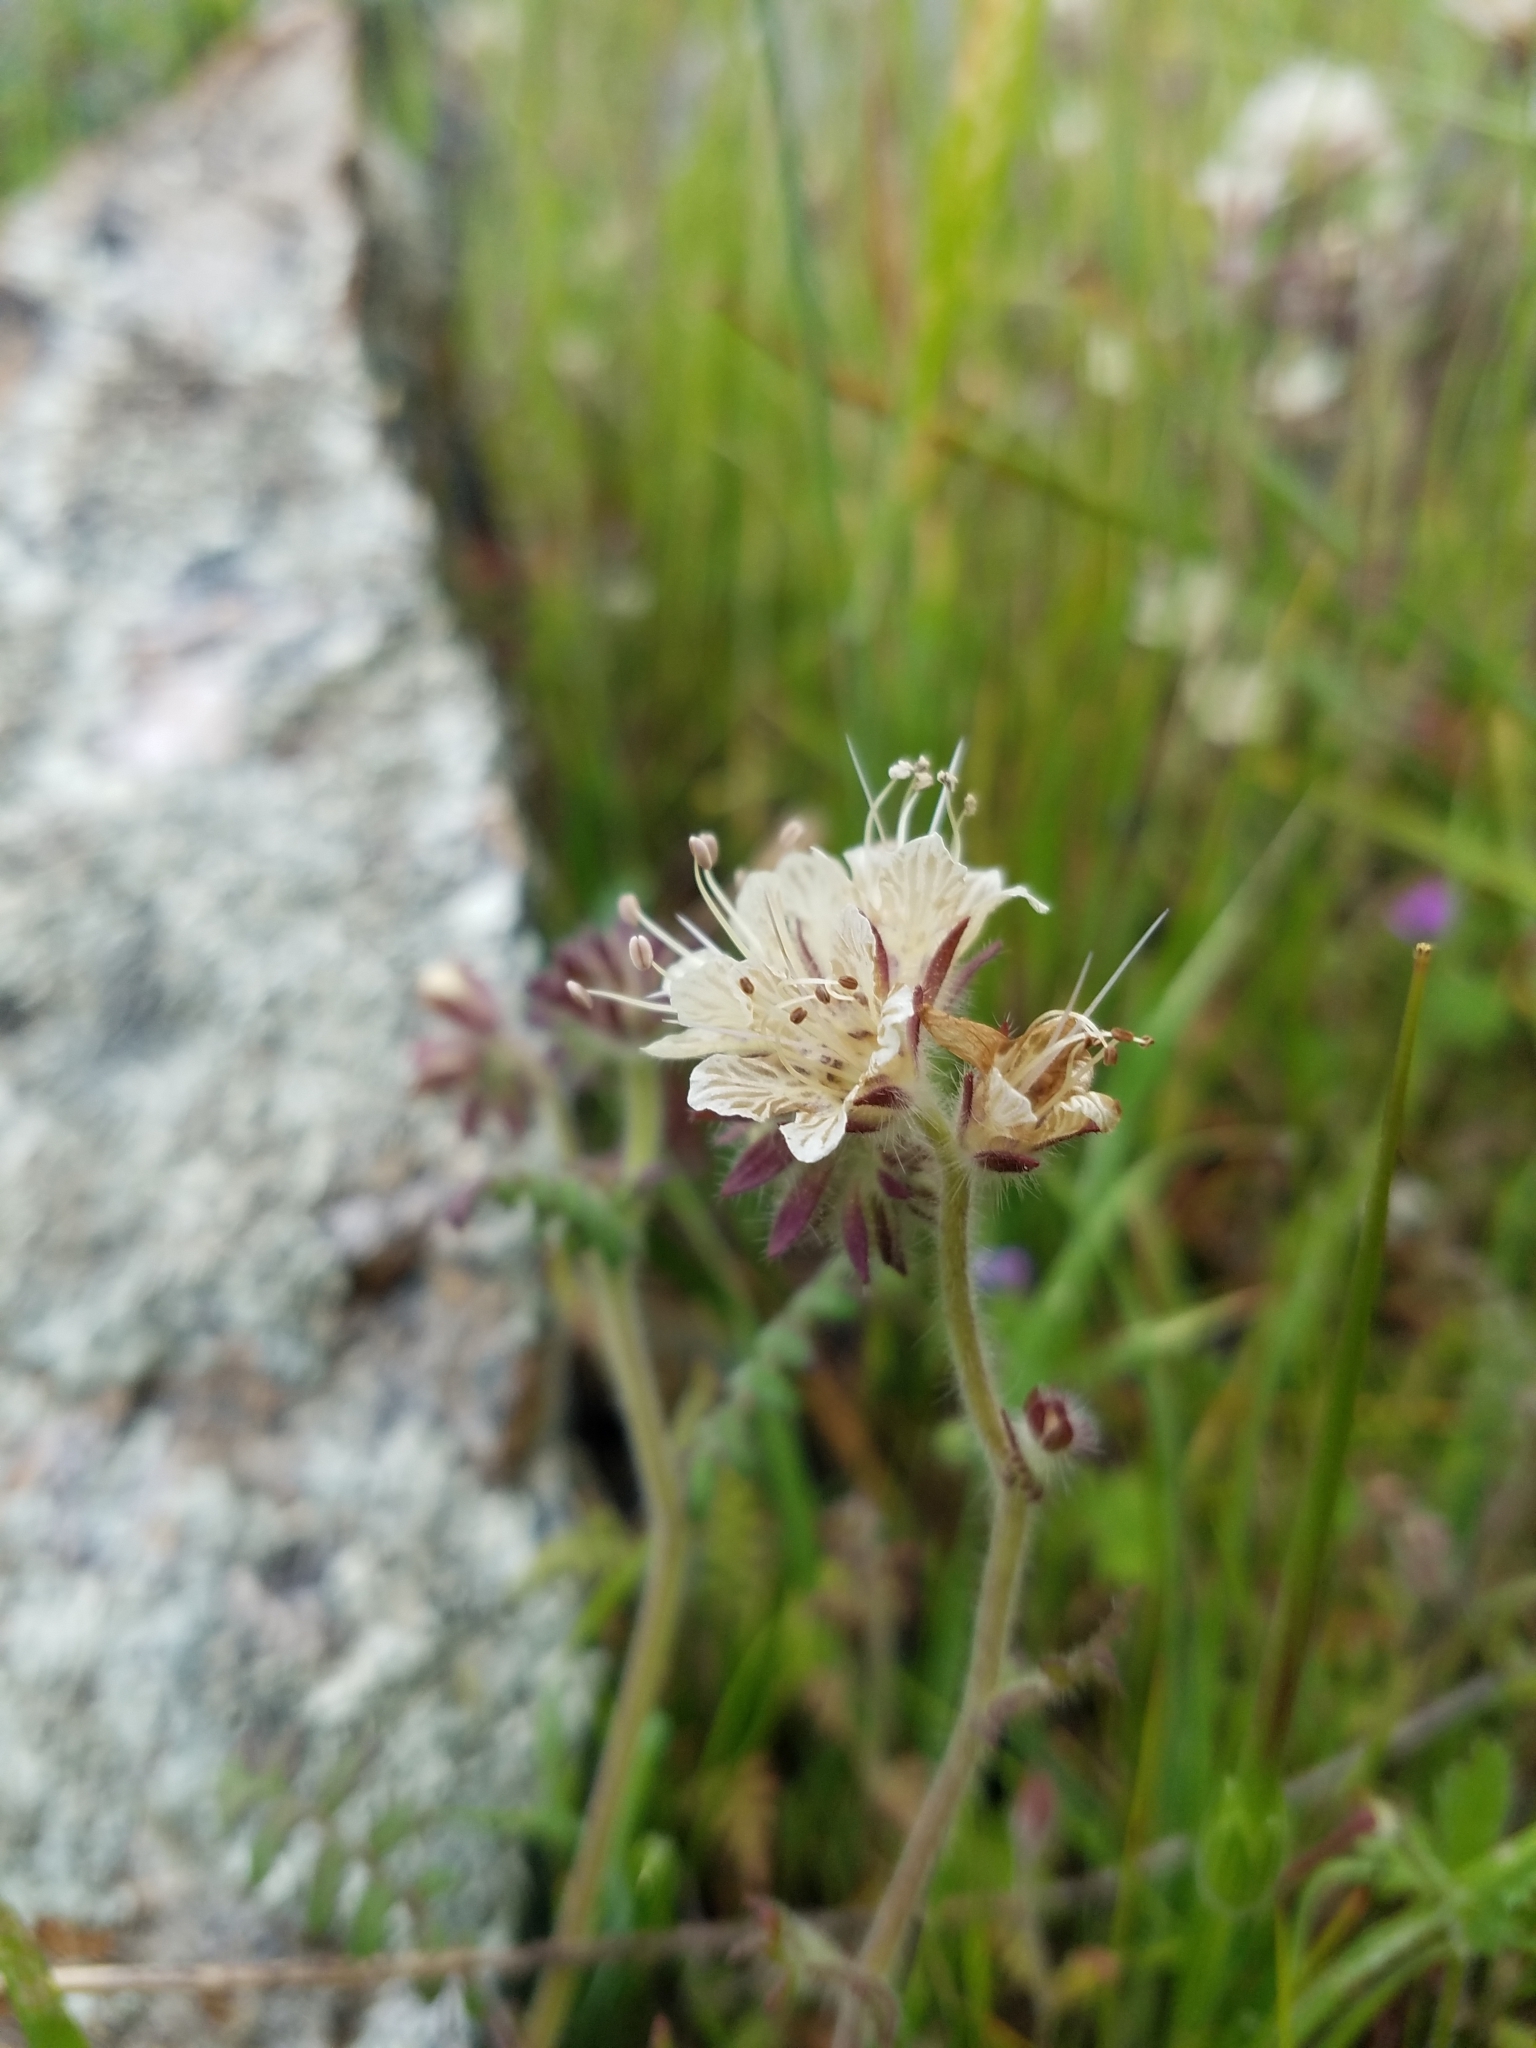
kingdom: Plantae
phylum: Tracheophyta
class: Magnoliopsida
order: Boraginales
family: Hydrophyllaceae
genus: Phacelia
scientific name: Phacelia distans
